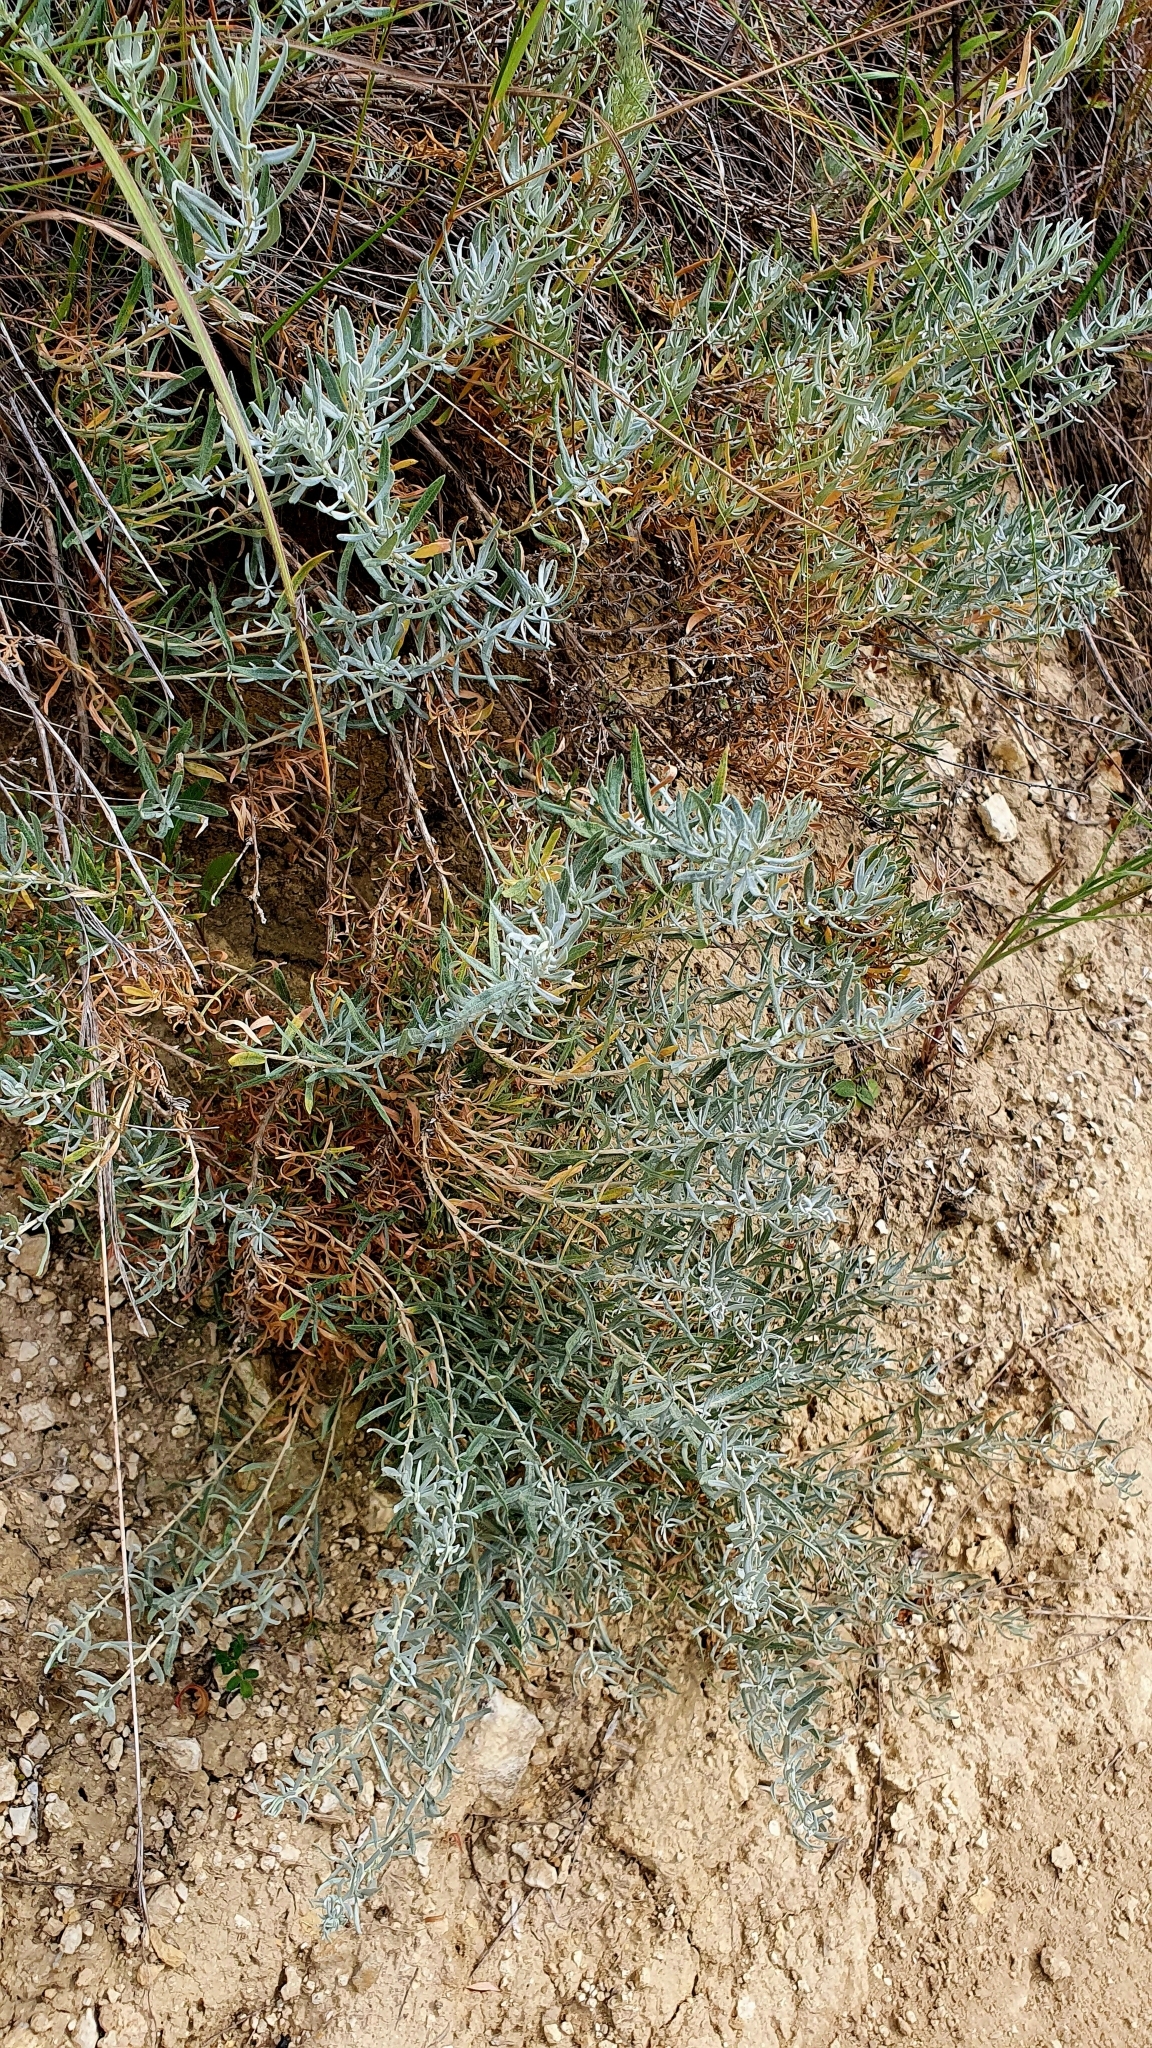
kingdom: Plantae
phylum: Tracheophyta
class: Magnoliopsida
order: Caryophyllales
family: Amaranthaceae
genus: Krascheninnikovia
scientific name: Krascheninnikovia ceratoides
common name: Pamirian winterfat
